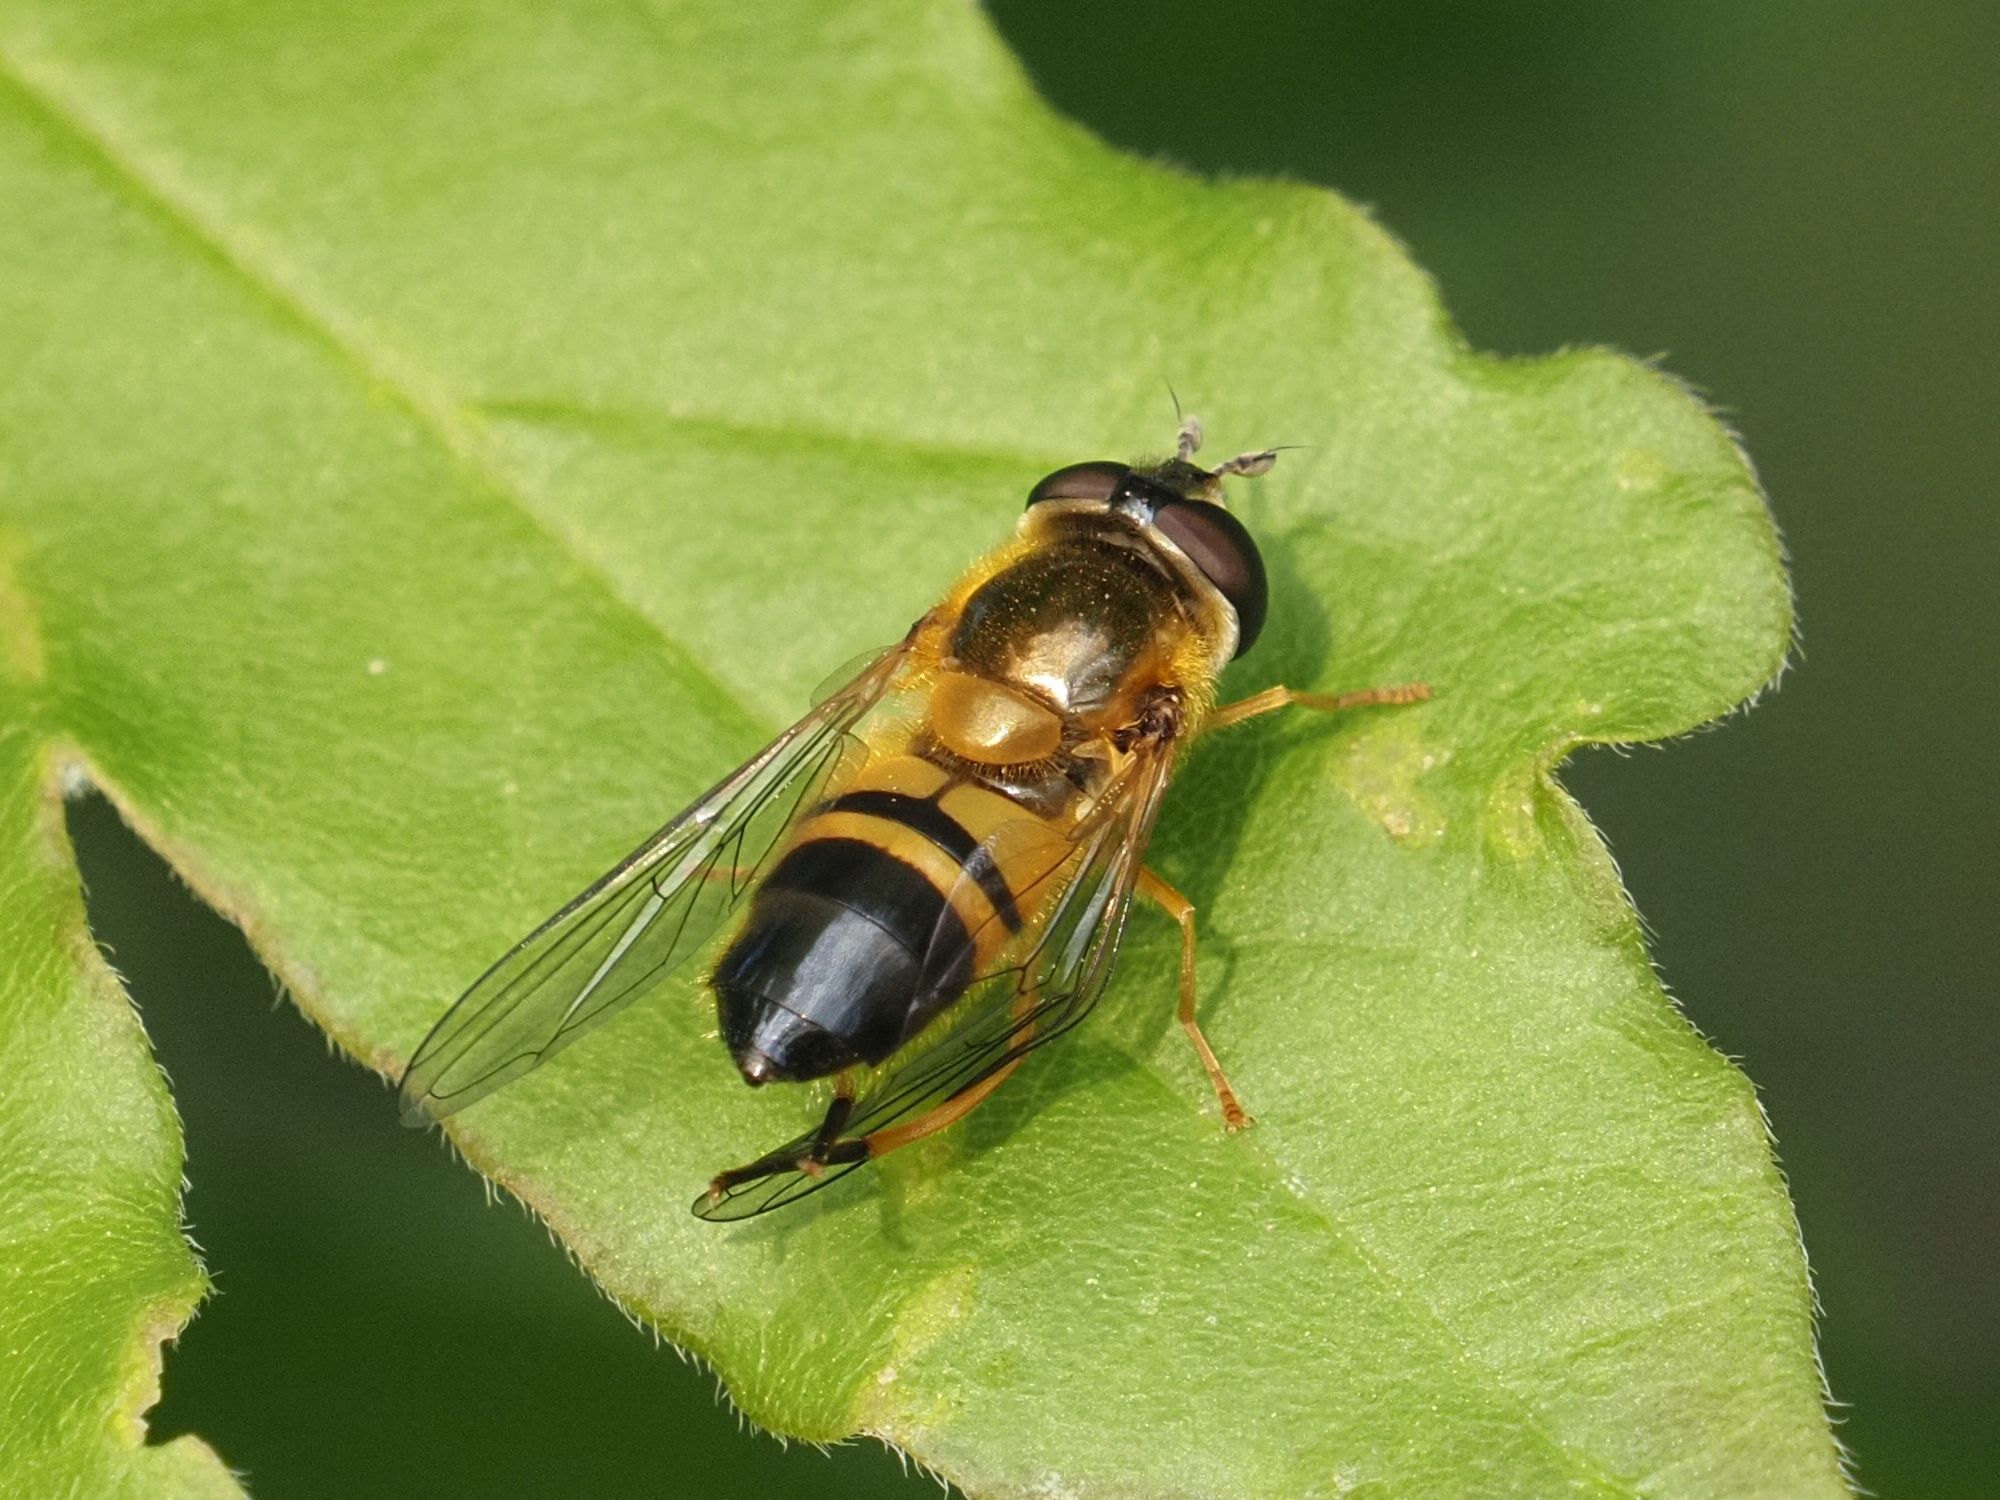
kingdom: Animalia
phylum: Arthropoda
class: Insecta
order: Diptera
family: Syrphidae
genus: Epistrophe
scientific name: Epistrophe eligans
